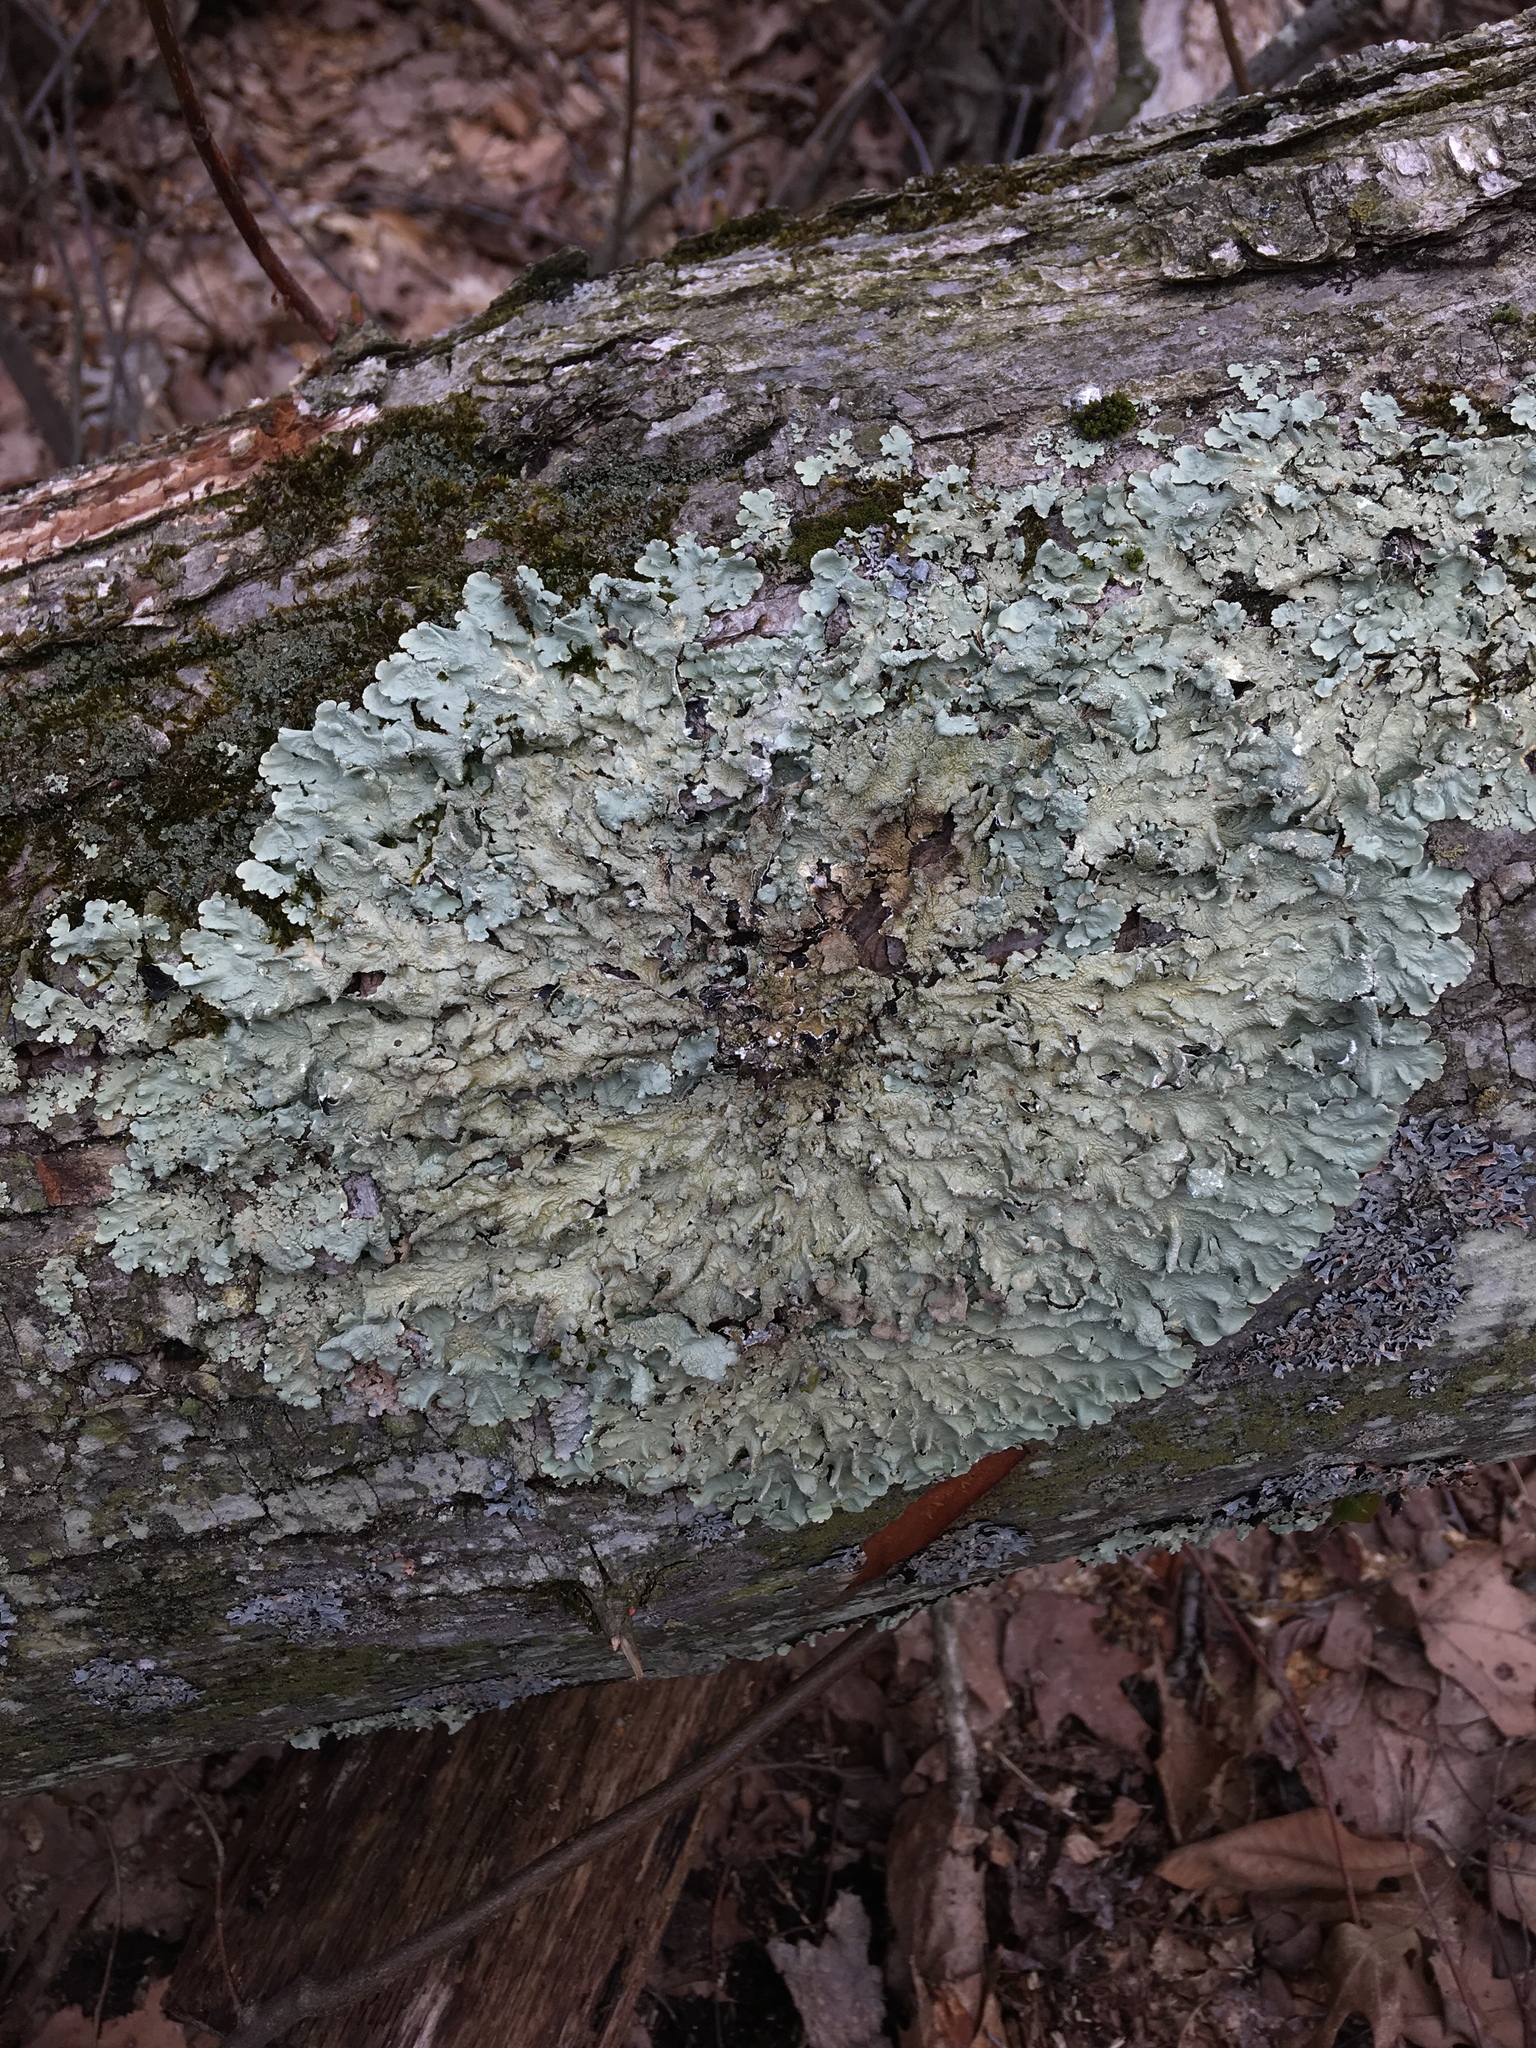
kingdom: Fungi
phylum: Ascomycota
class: Lecanoromycetes
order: Lecanorales
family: Parmeliaceae
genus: Flavoparmelia
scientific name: Flavoparmelia caperata
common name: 40-mile per hour lichen
